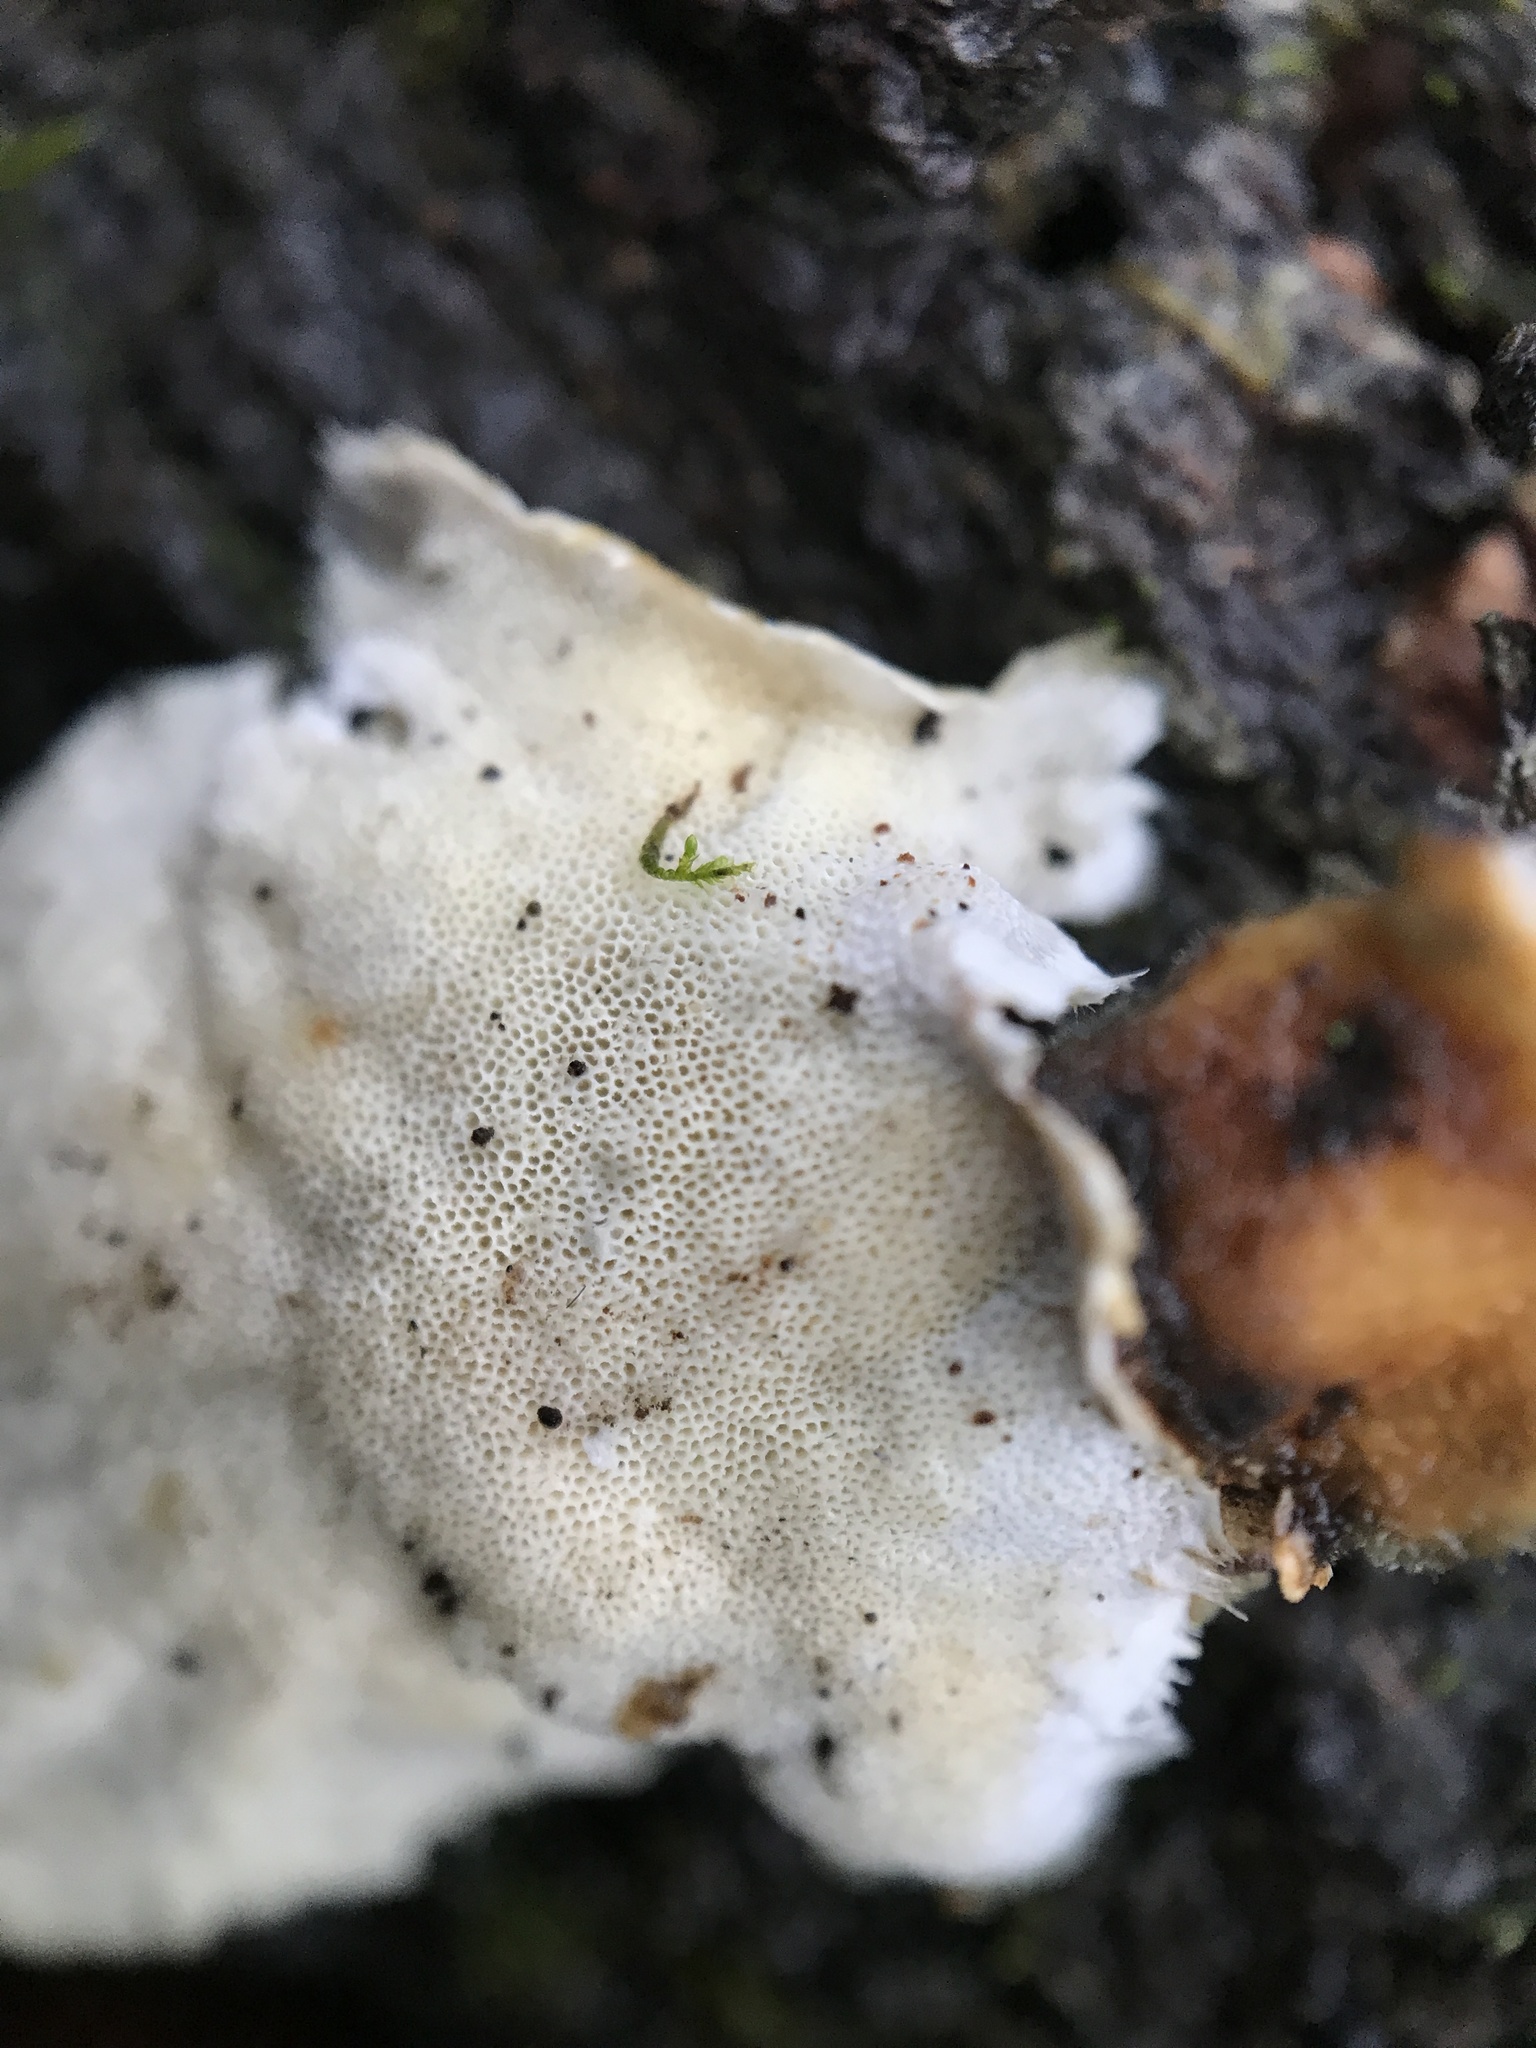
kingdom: Fungi
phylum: Basidiomycota
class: Agaricomycetes
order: Polyporales
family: Polyporaceae
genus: Trametes
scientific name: Trametes versicolor
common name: Turkeytail
